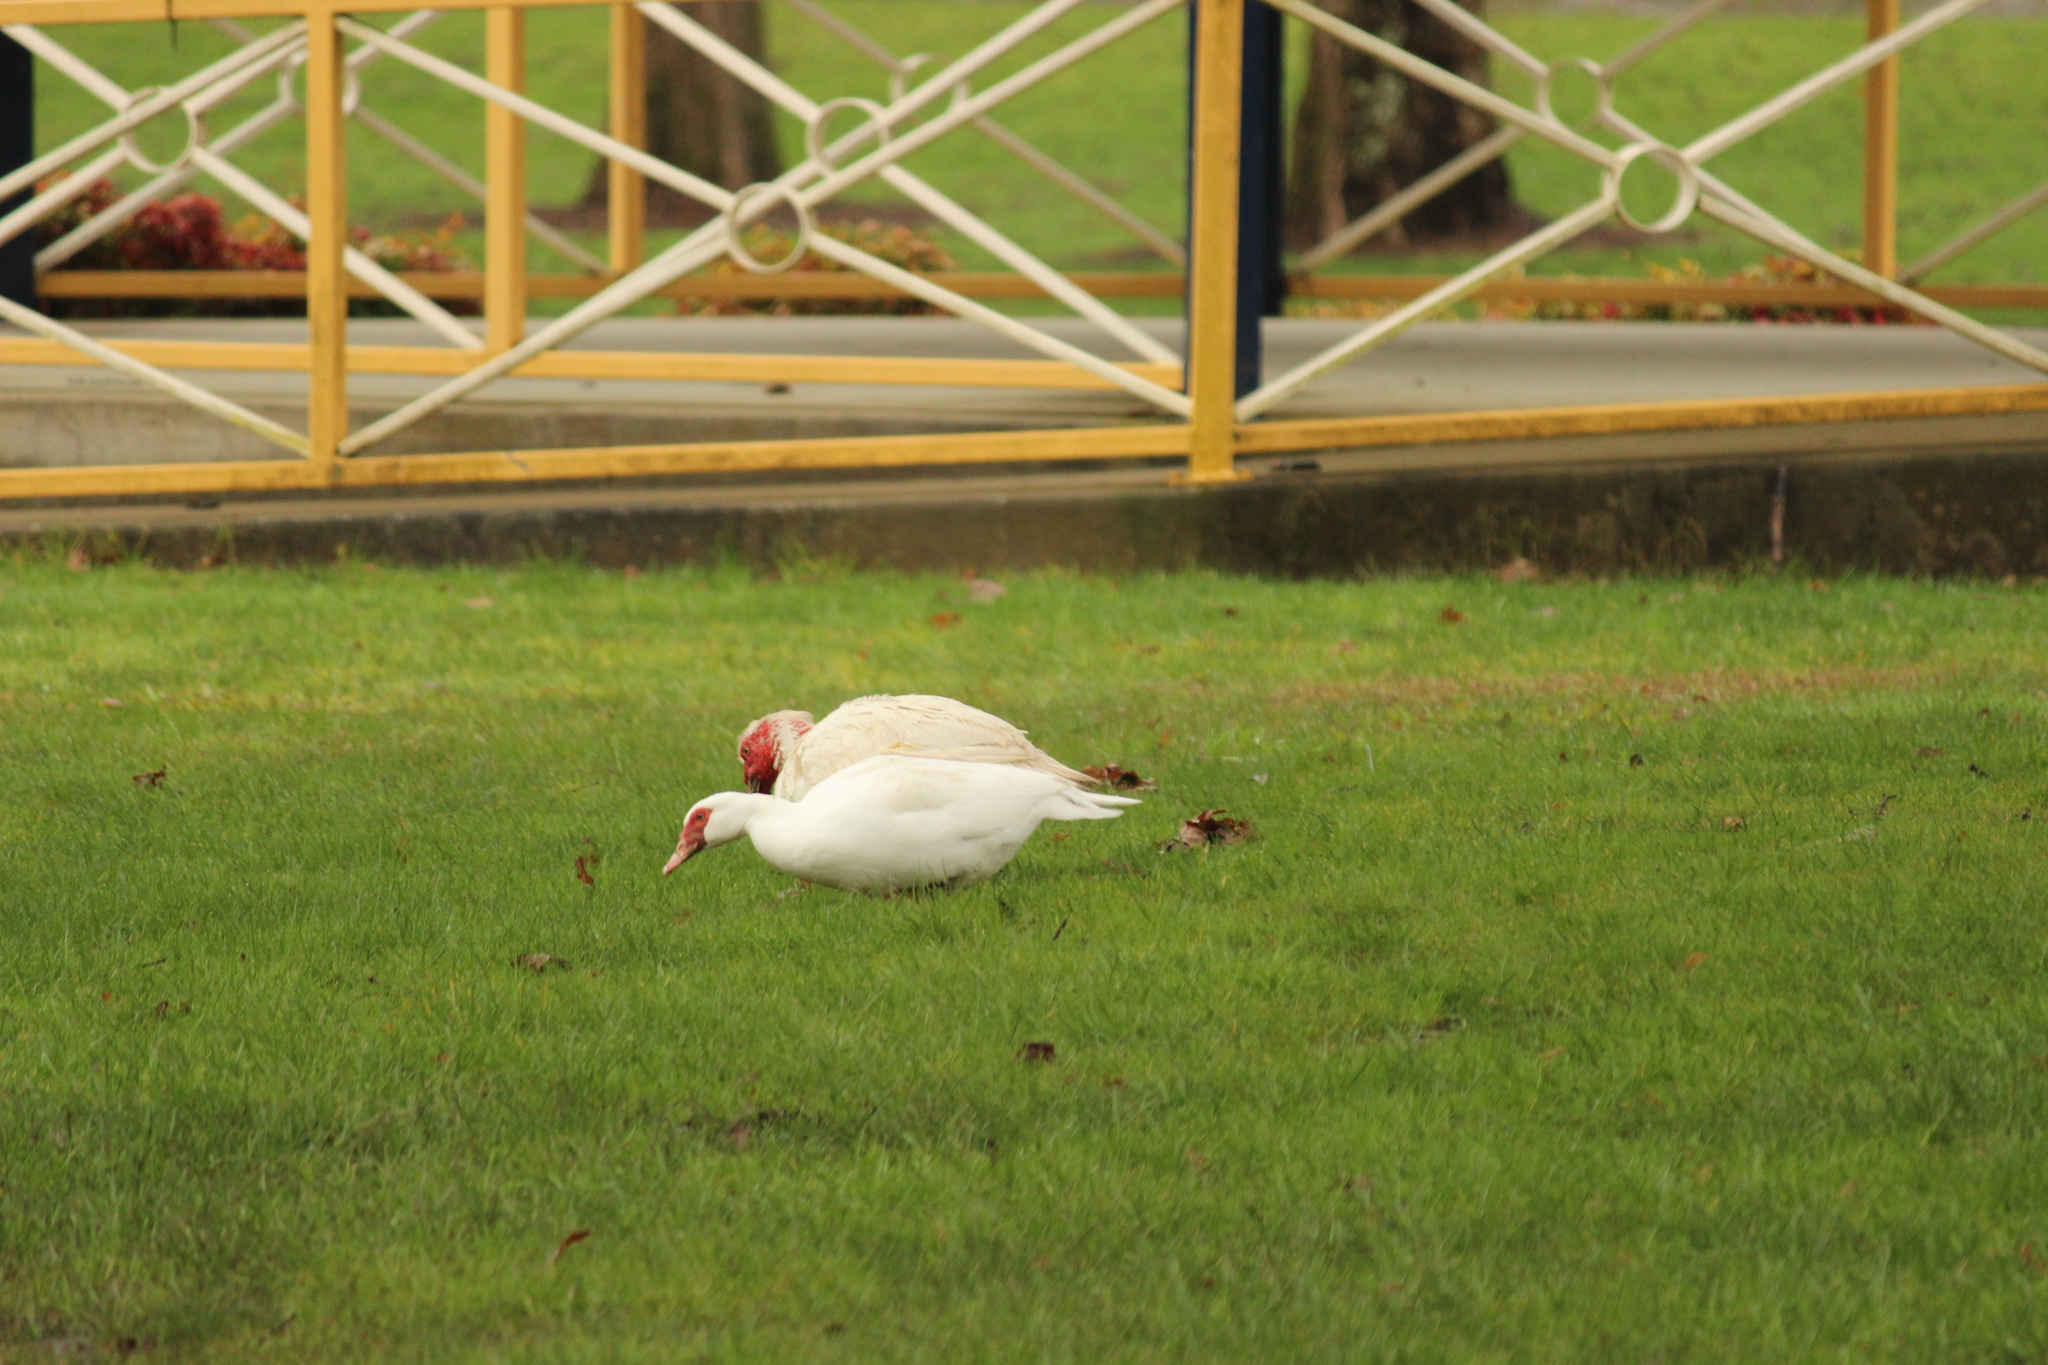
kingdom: Animalia
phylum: Chordata
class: Aves
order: Anseriformes
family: Anatidae
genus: Cairina
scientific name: Cairina moschata
